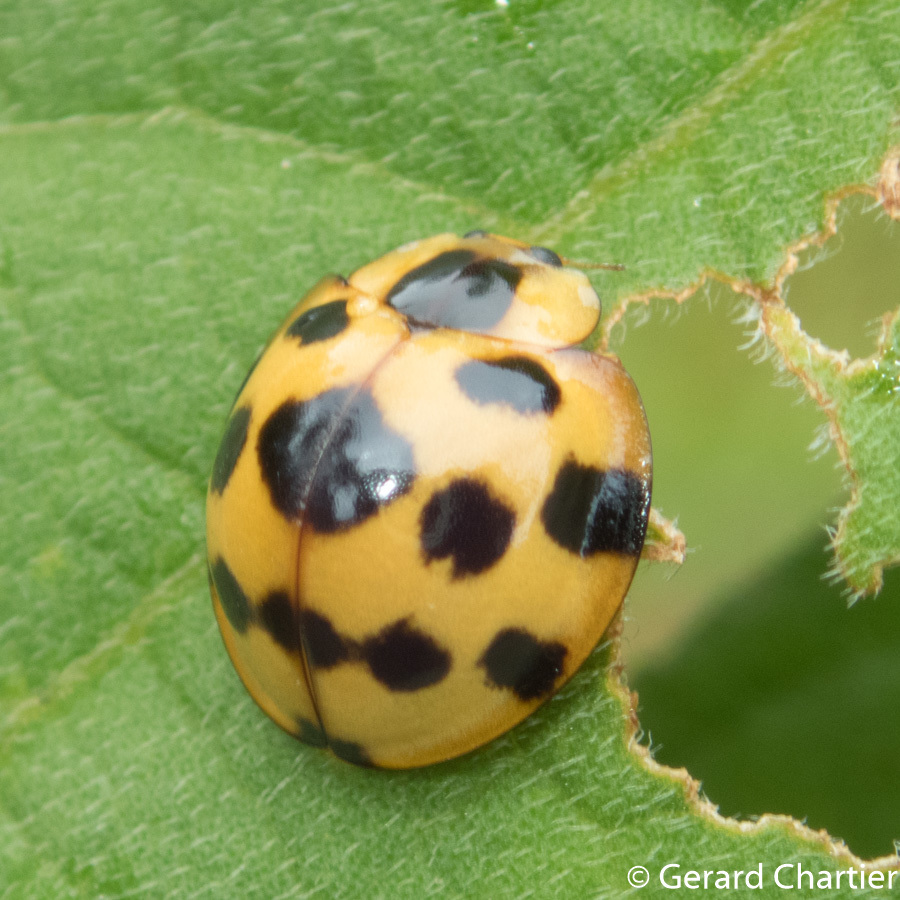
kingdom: Animalia
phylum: Arthropoda
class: Insecta
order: Coleoptera
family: Coccinellidae
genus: Synonycha
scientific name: Synonycha grandis
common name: Lady beetle
